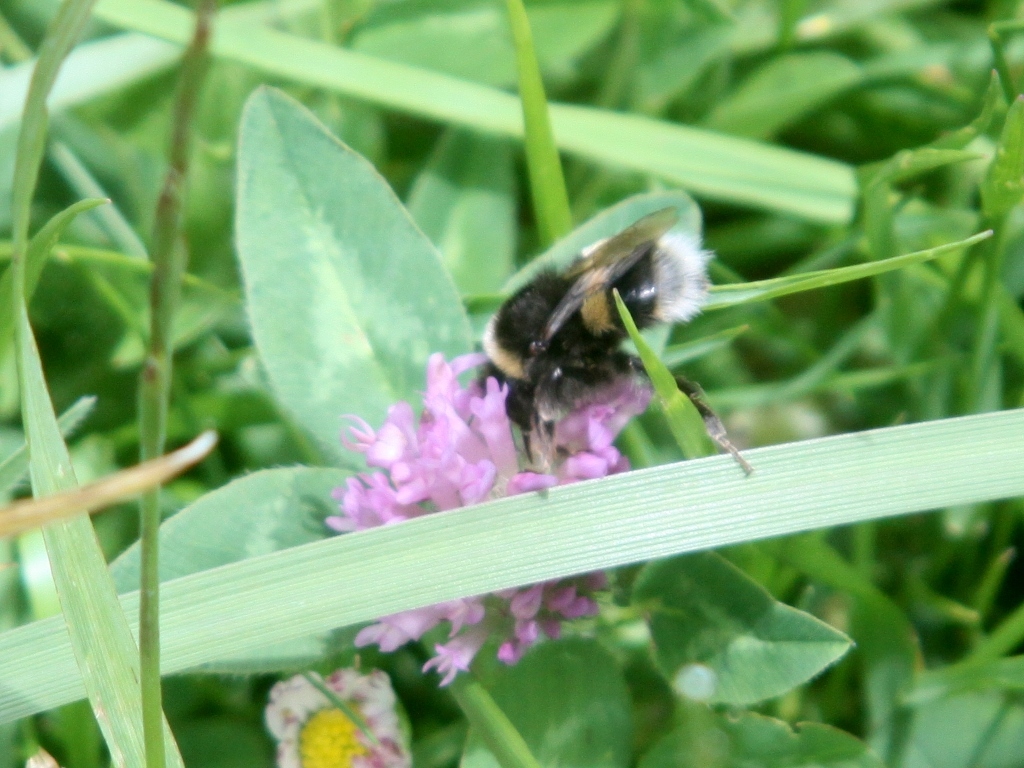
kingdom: Animalia
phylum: Arthropoda
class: Insecta
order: Hymenoptera
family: Apidae
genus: Bombus
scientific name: Bombus terrestris
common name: Buff-tailed bumblebee
